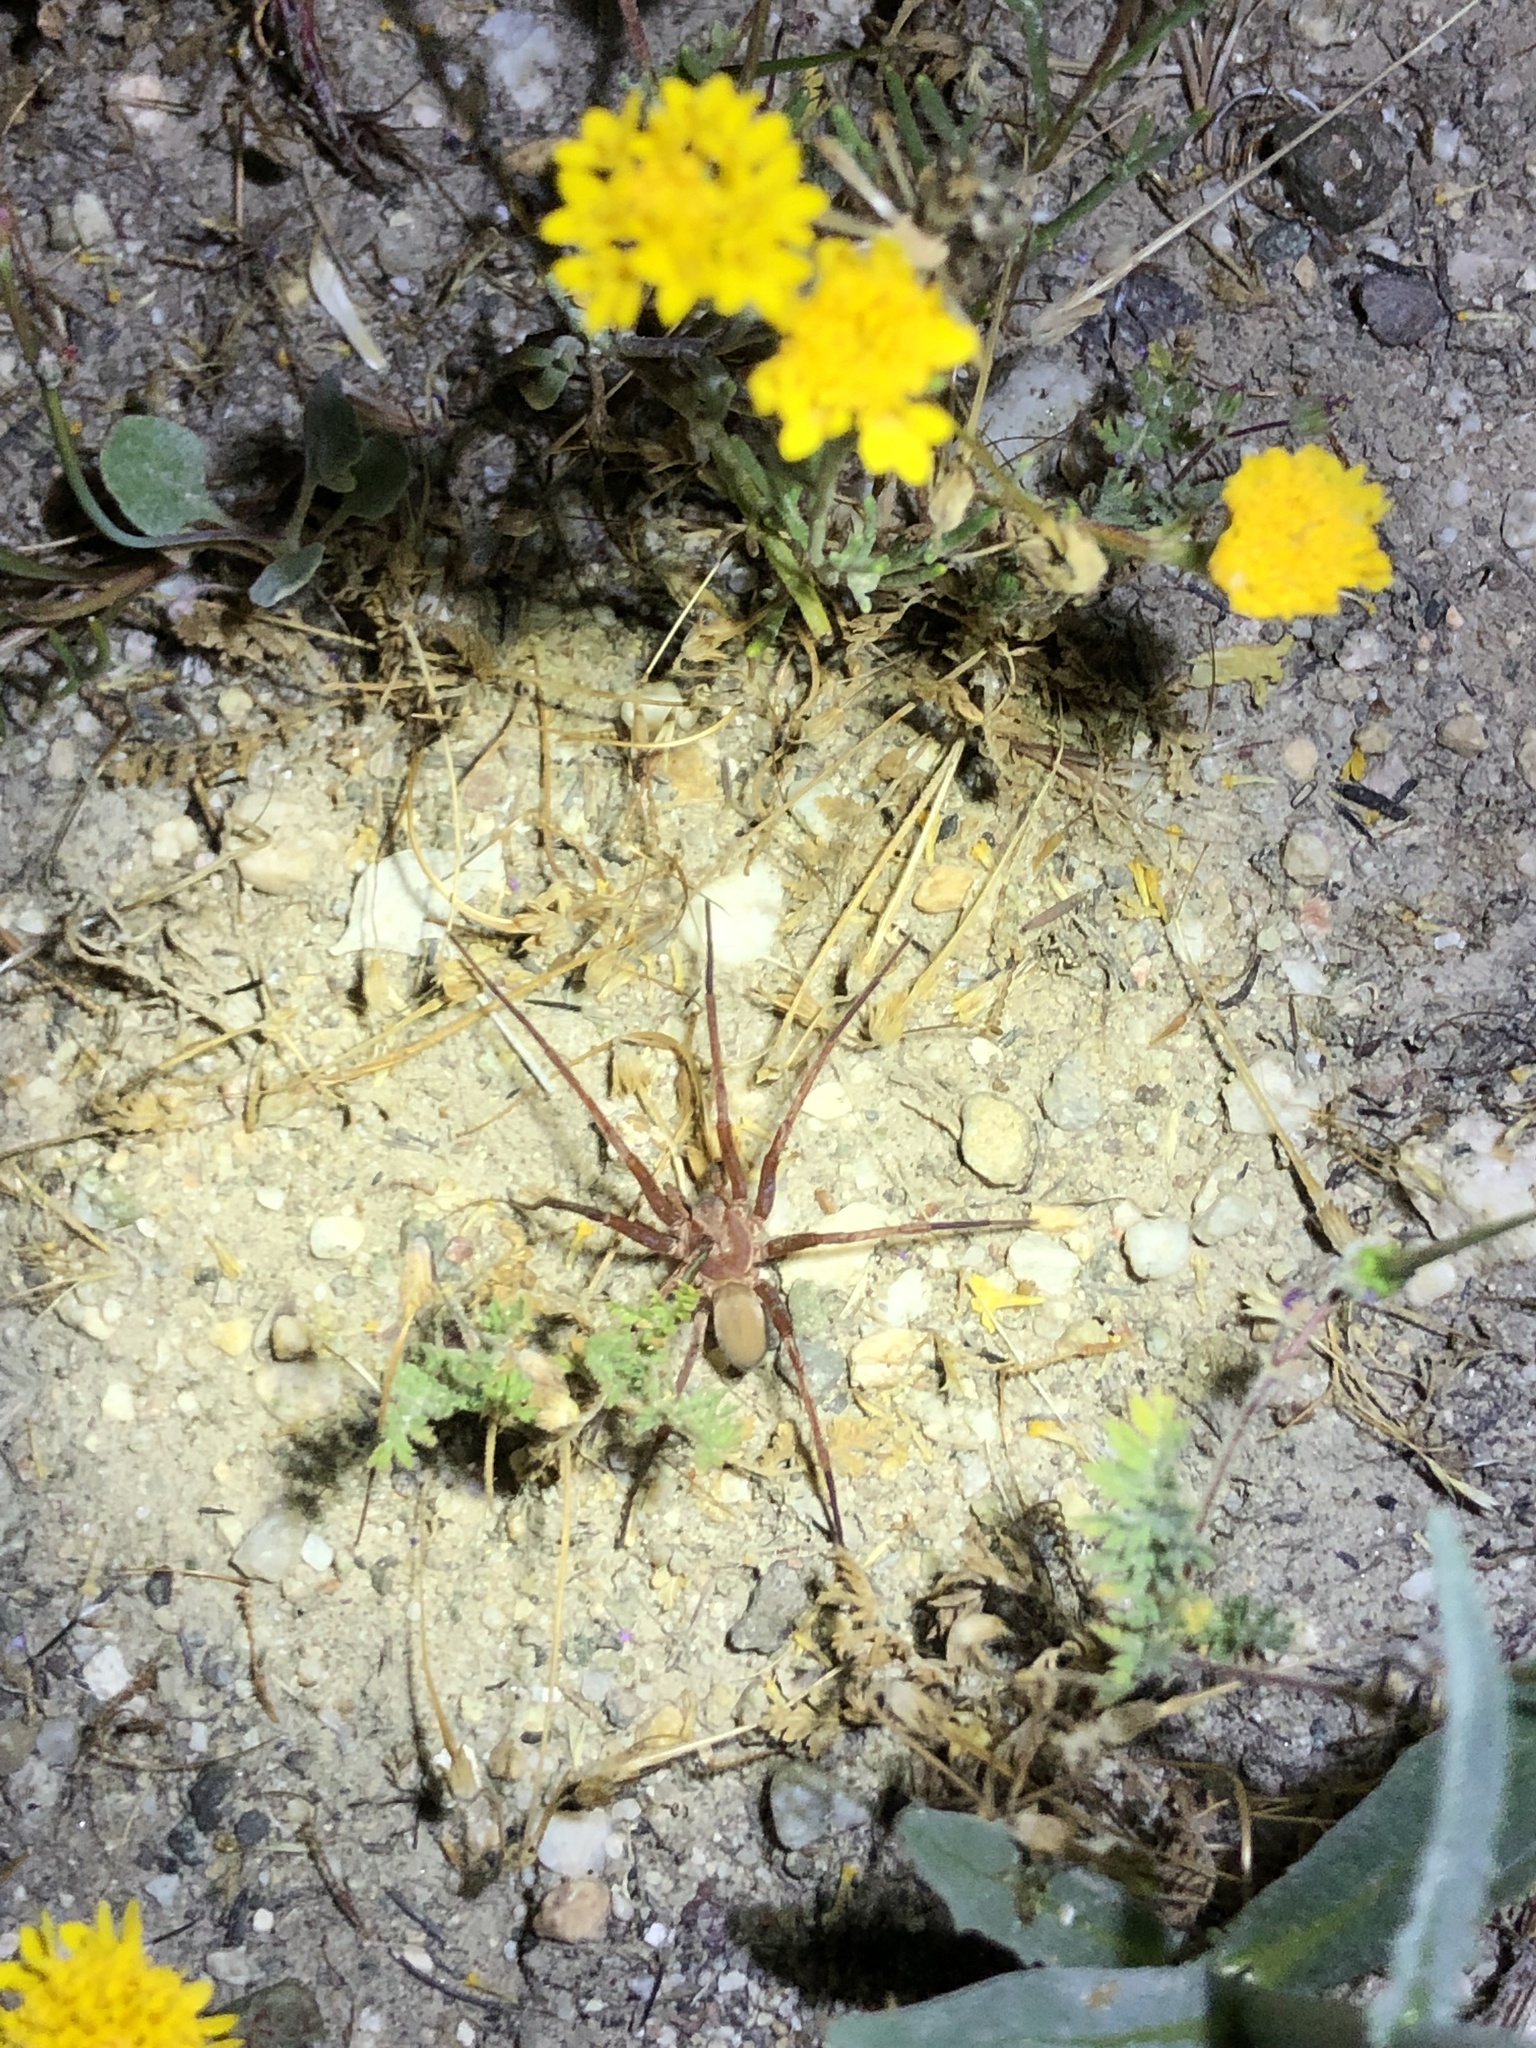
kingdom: Animalia
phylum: Arthropoda
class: Arachnida
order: Araneae
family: Zoropsidae
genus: Titiotus
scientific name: Titiotus shantzi
